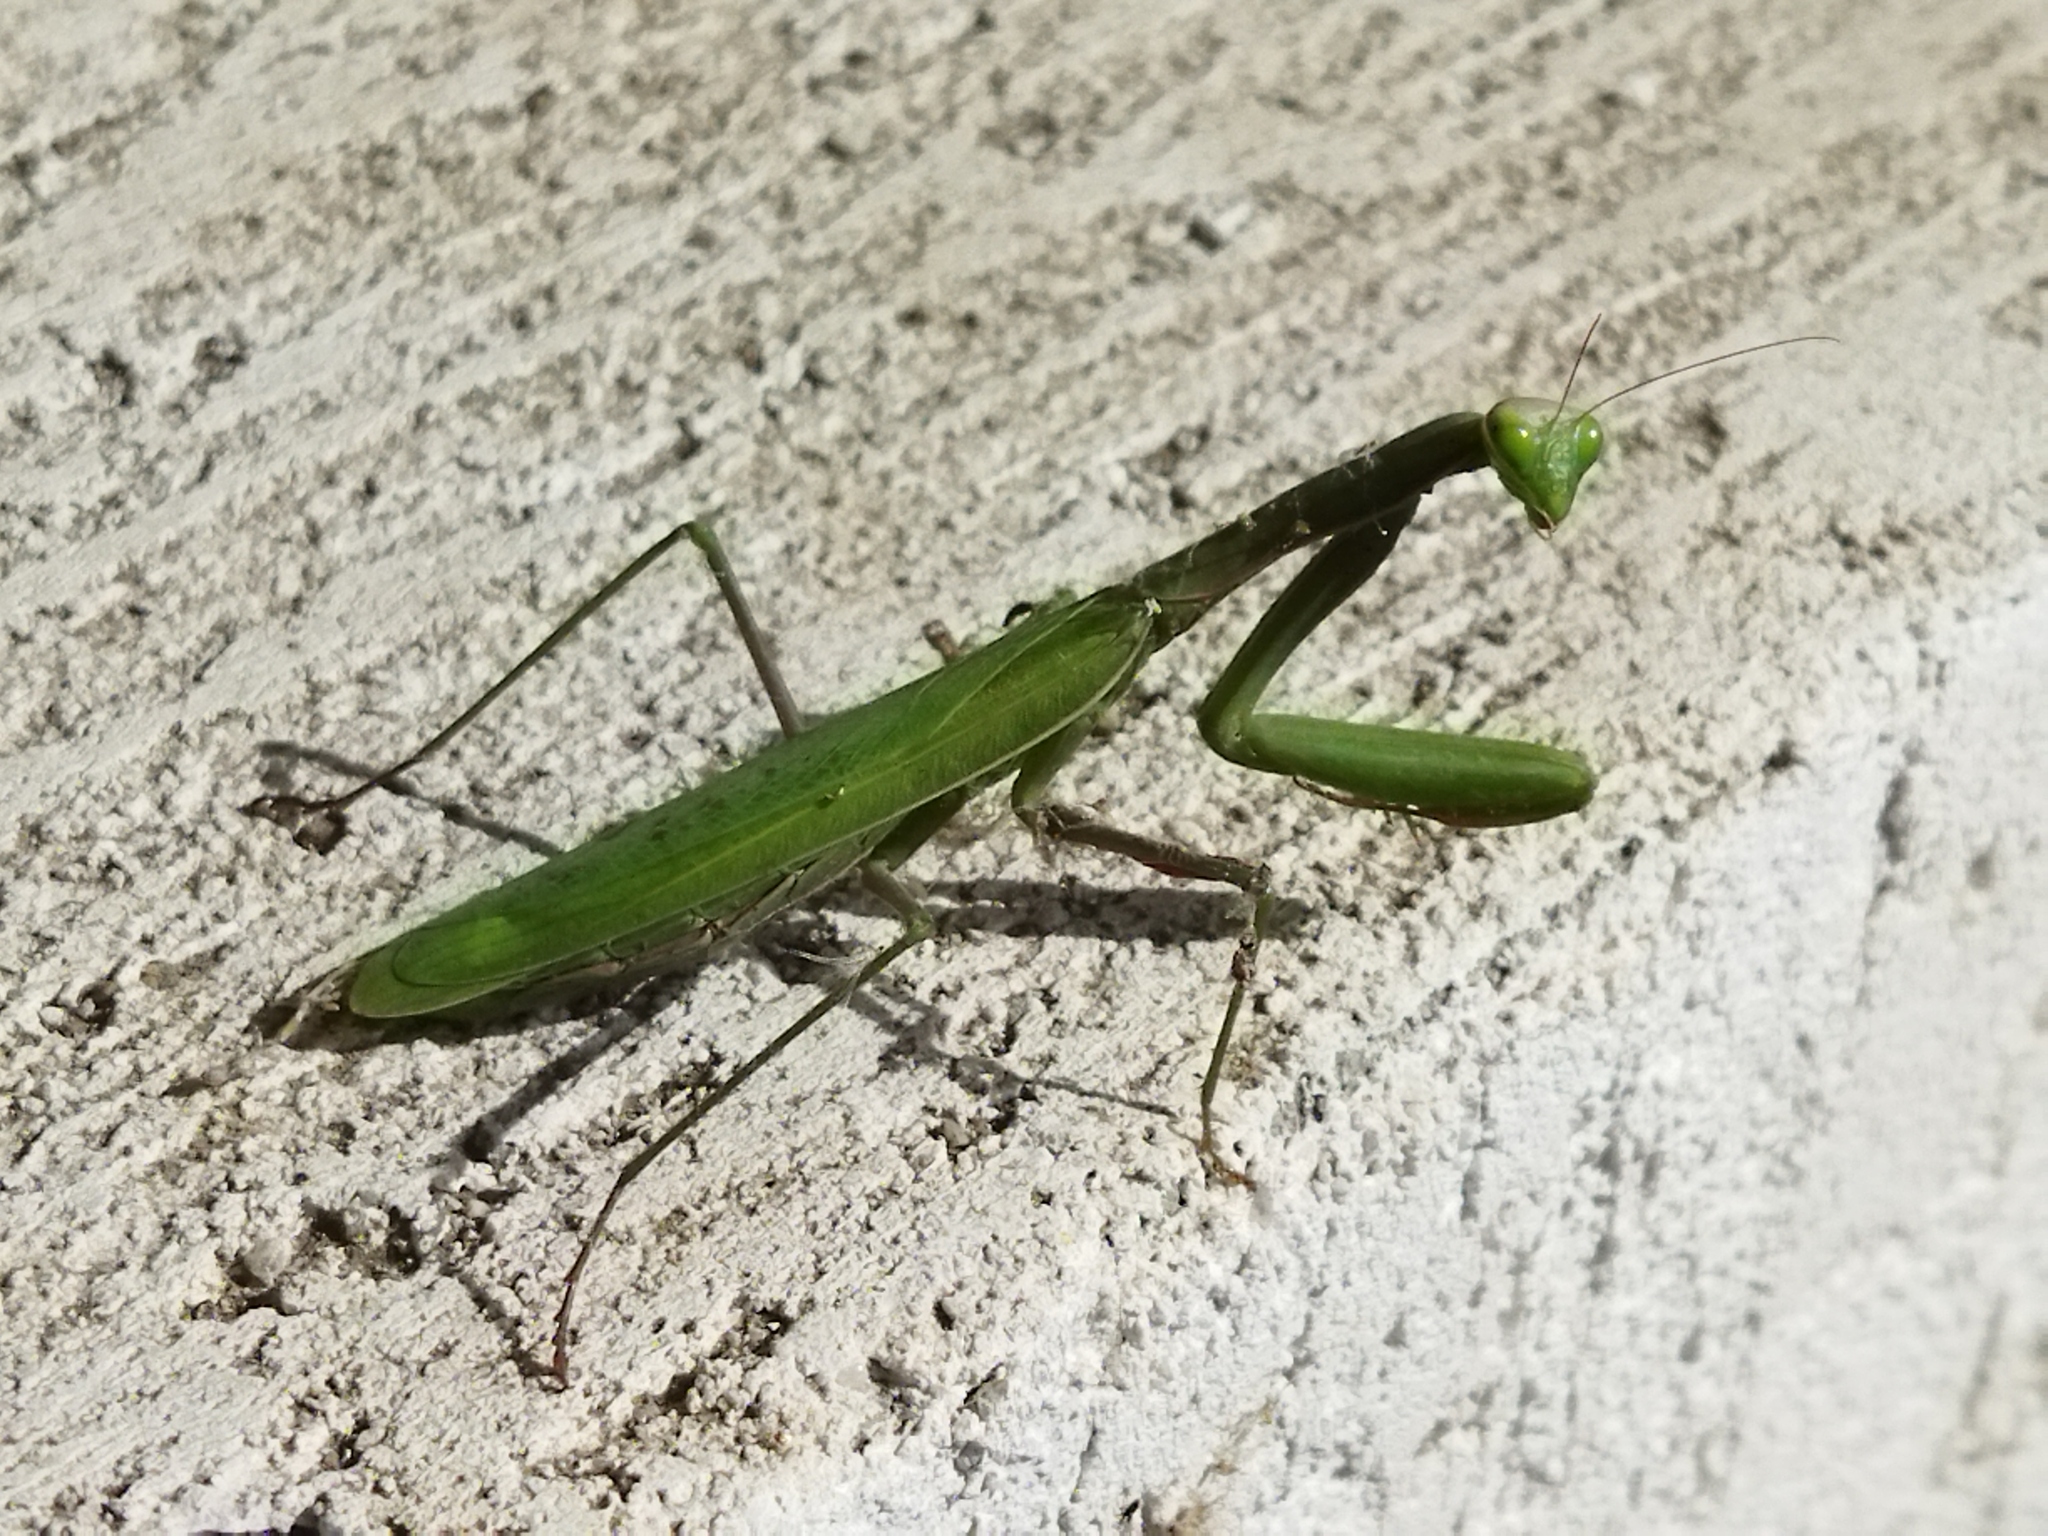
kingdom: Animalia
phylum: Arthropoda
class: Insecta
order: Mantodea
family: Mantidae
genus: Mantis
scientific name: Mantis religiosa
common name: Praying mantis
